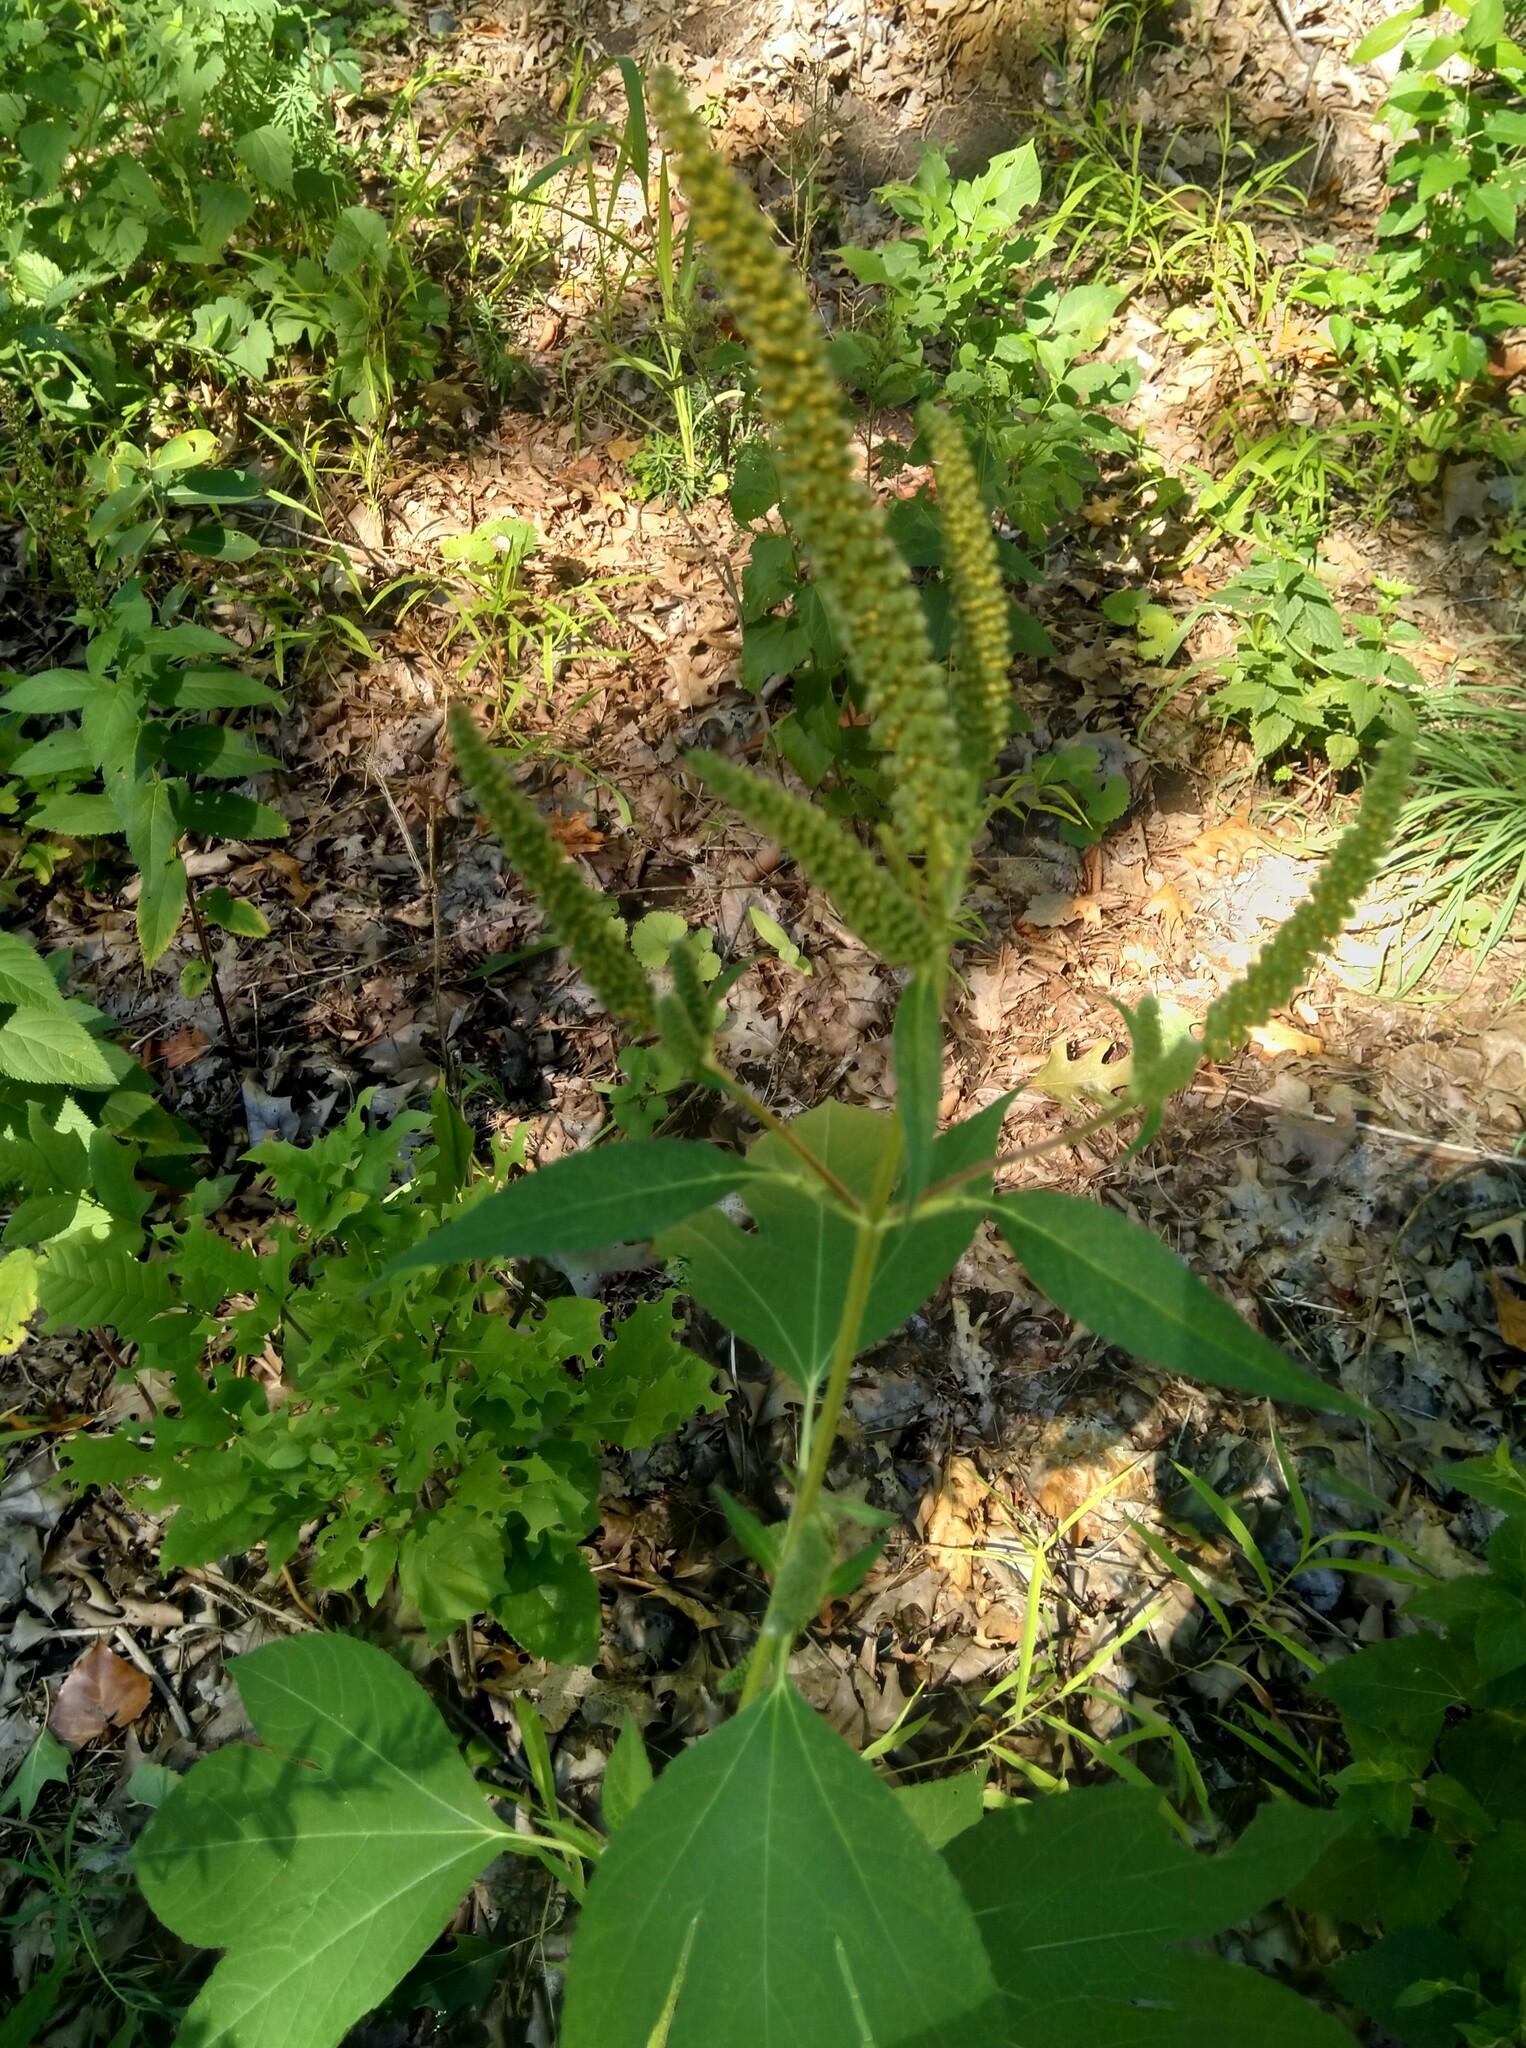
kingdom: Plantae
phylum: Tracheophyta
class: Magnoliopsida
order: Asterales
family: Asteraceae
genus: Ambrosia
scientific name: Ambrosia trifida
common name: Giant ragweed
